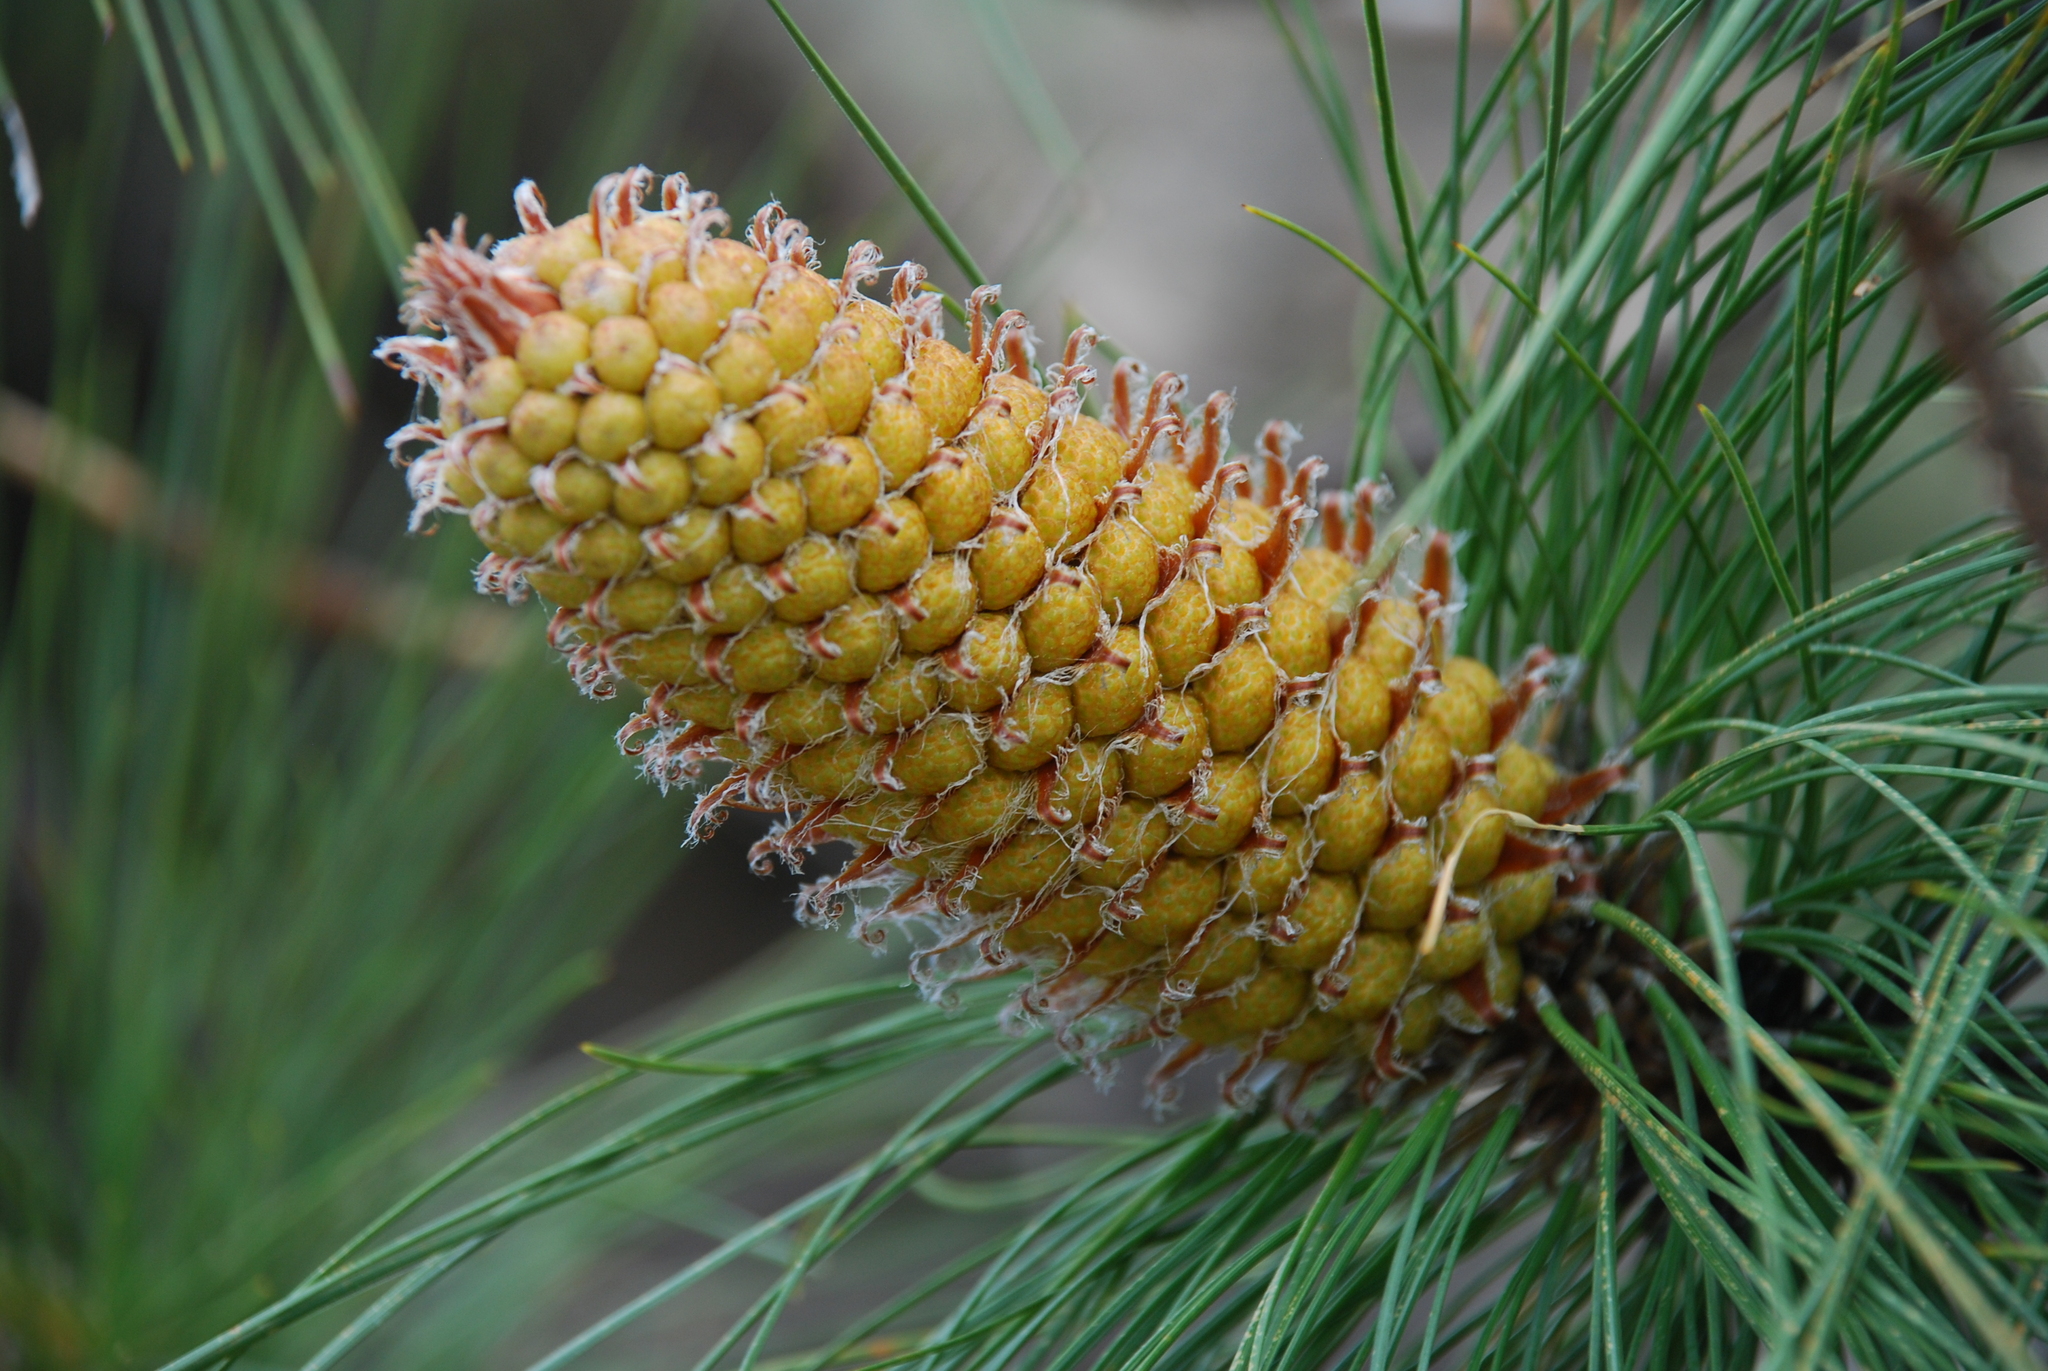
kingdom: Plantae
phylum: Tracheophyta
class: Pinopsida
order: Pinales
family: Pinaceae
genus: Pinus
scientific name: Pinus canariensis
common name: Canary islands pine
